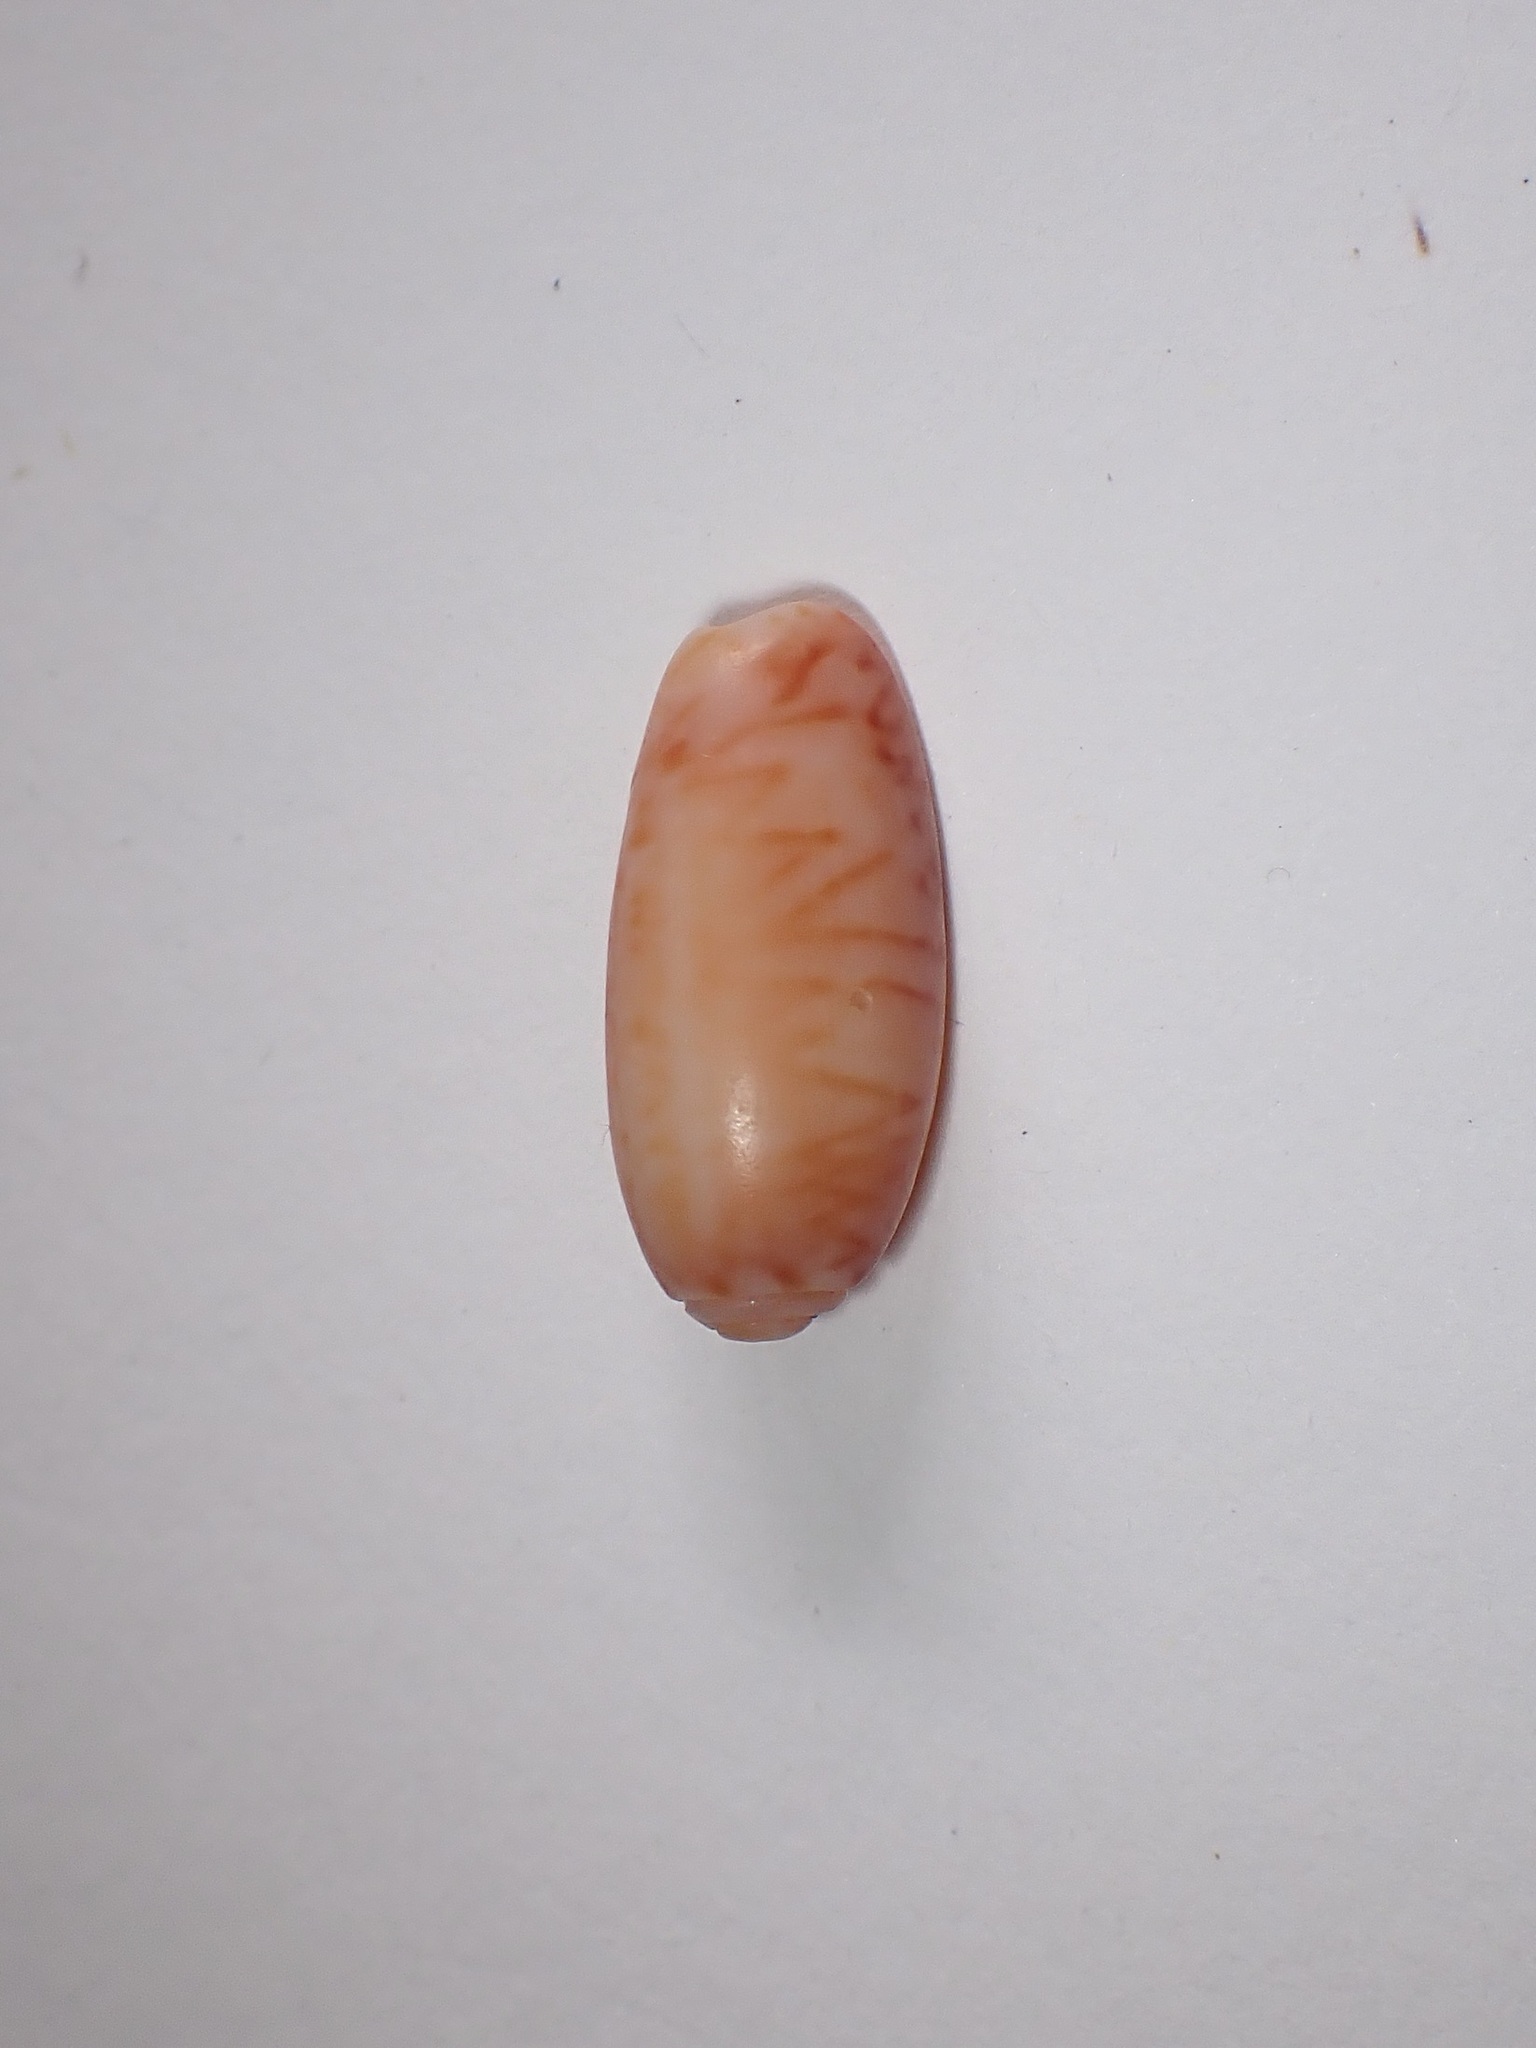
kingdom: Animalia
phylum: Mollusca
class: Gastropoda
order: Neogastropoda
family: Olividae
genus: Oliva
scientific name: Oliva bulbosa
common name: Inflated olive
